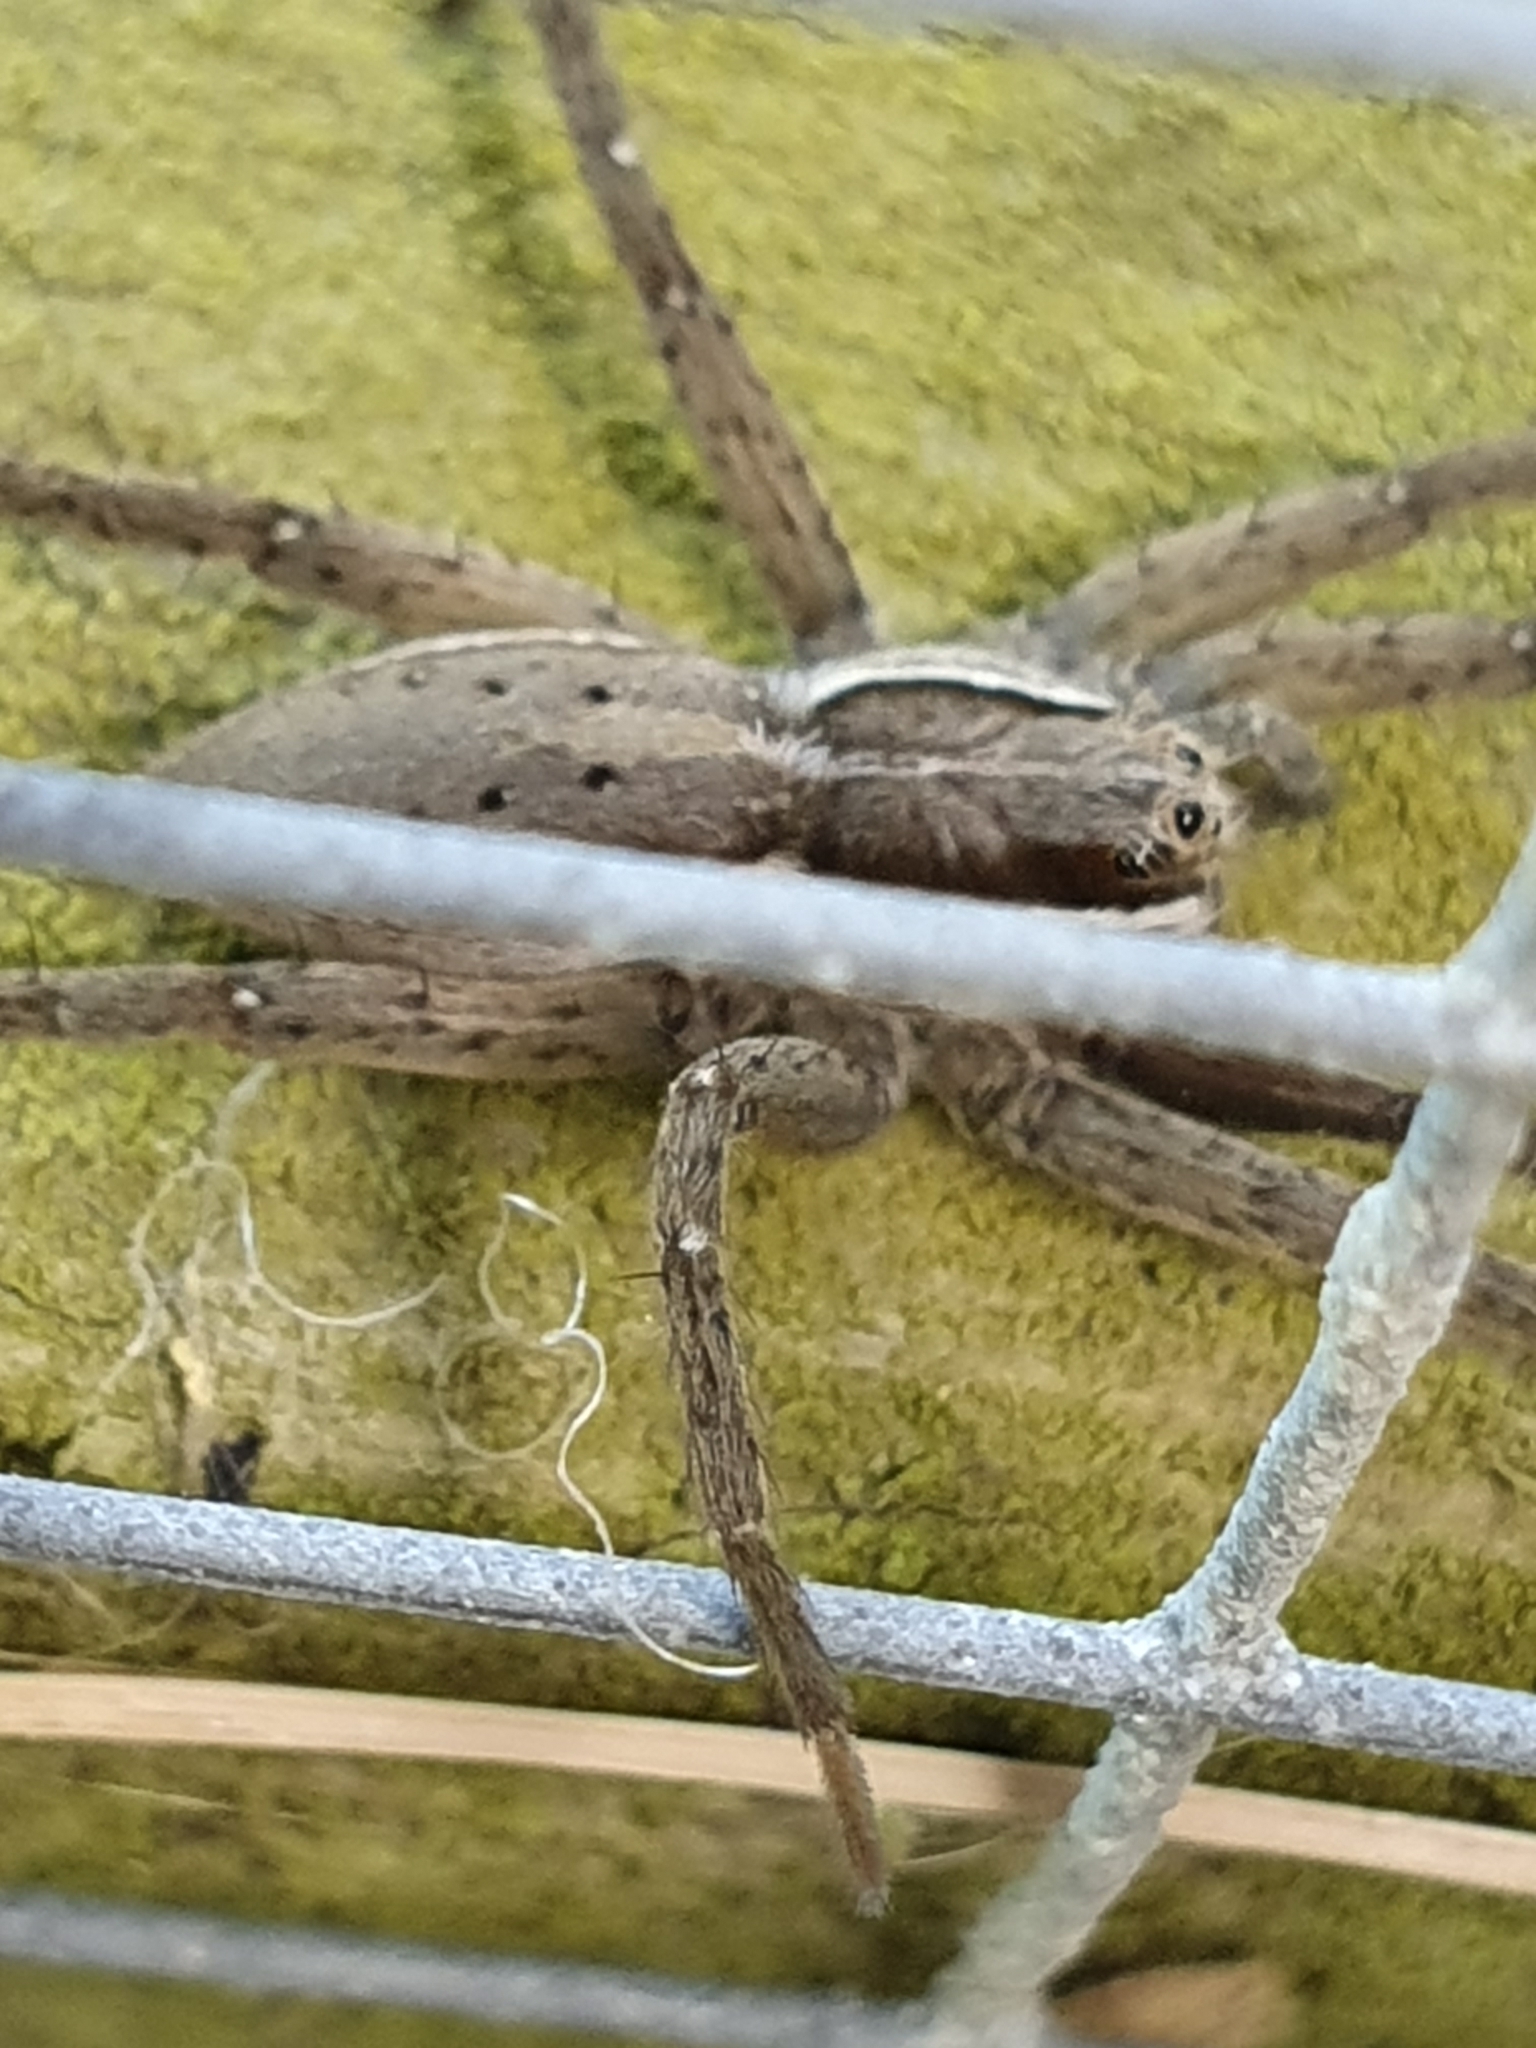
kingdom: Animalia
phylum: Arthropoda
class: Arachnida
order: Araneae
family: Pisauridae
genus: Dolomedes
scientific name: Dolomedes minor
